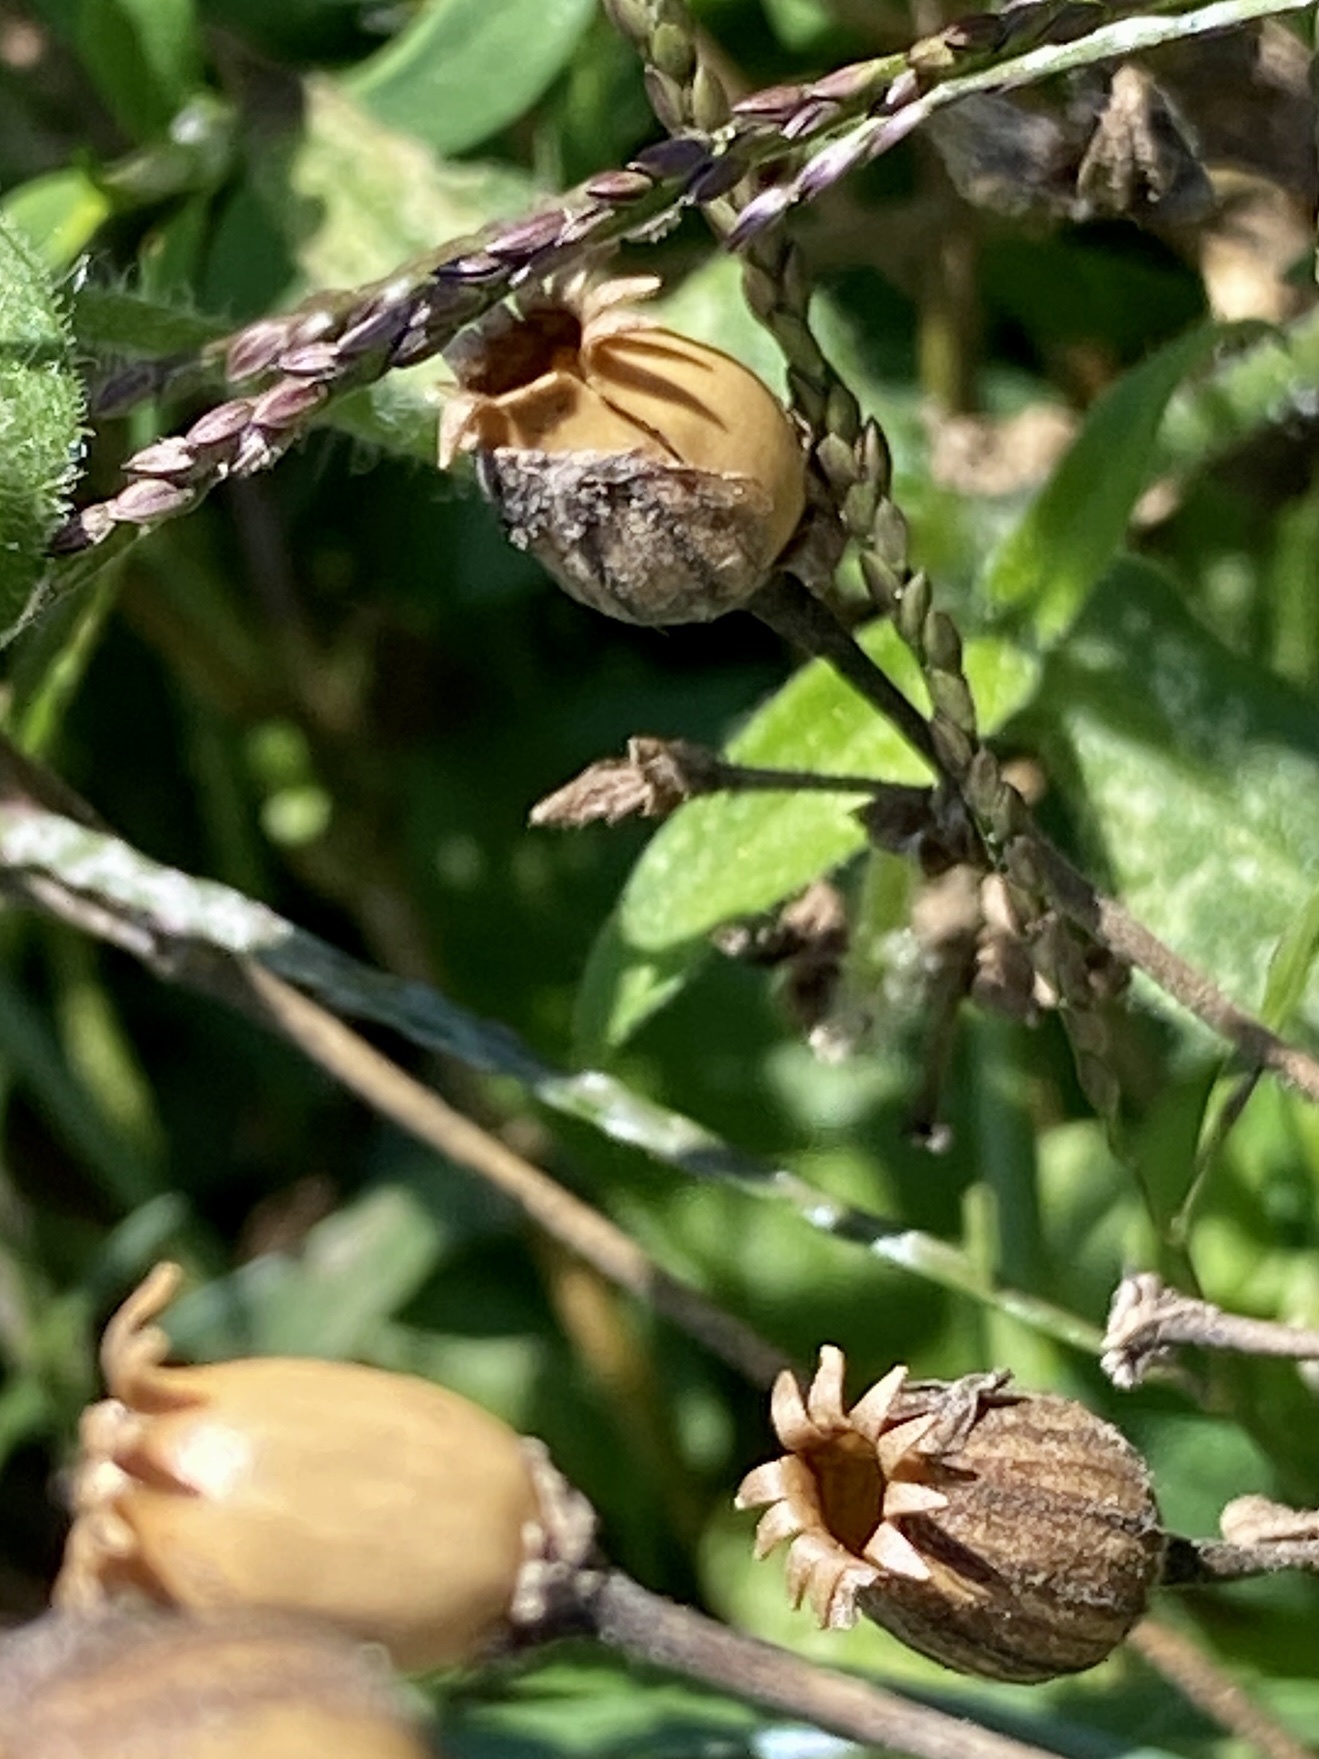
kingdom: Plantae
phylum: Tracheophyta
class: Magnoliopsida
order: Caryophyllales
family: Caryophyllaceae
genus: Silene
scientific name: Silene latifolia
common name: White campion
